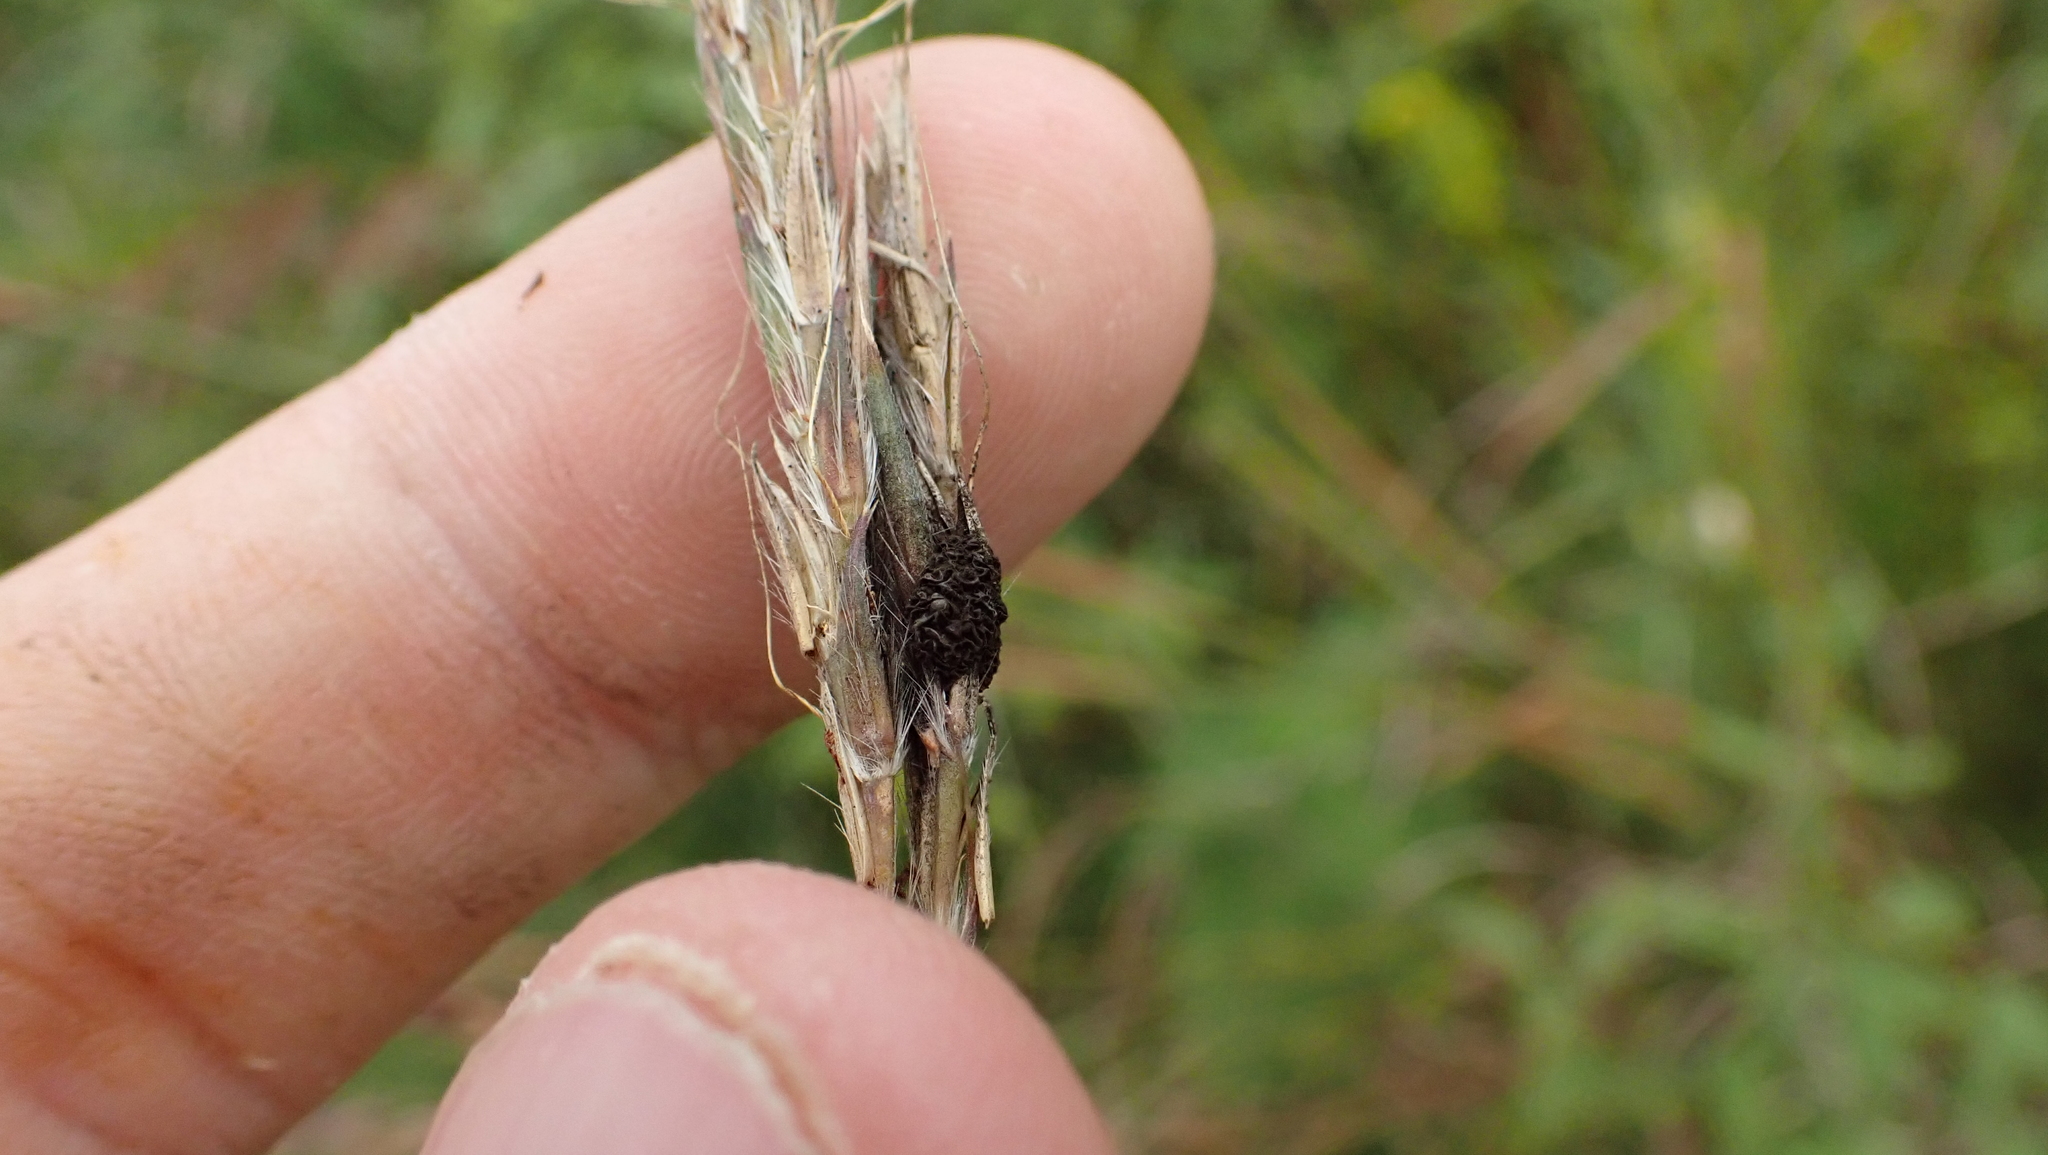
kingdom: Fungi
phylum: Ascomycota
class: Dothideomycetes
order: Pleosporales
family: Didymellaceae
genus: Epicoccum
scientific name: Epicoccum andropogonis
